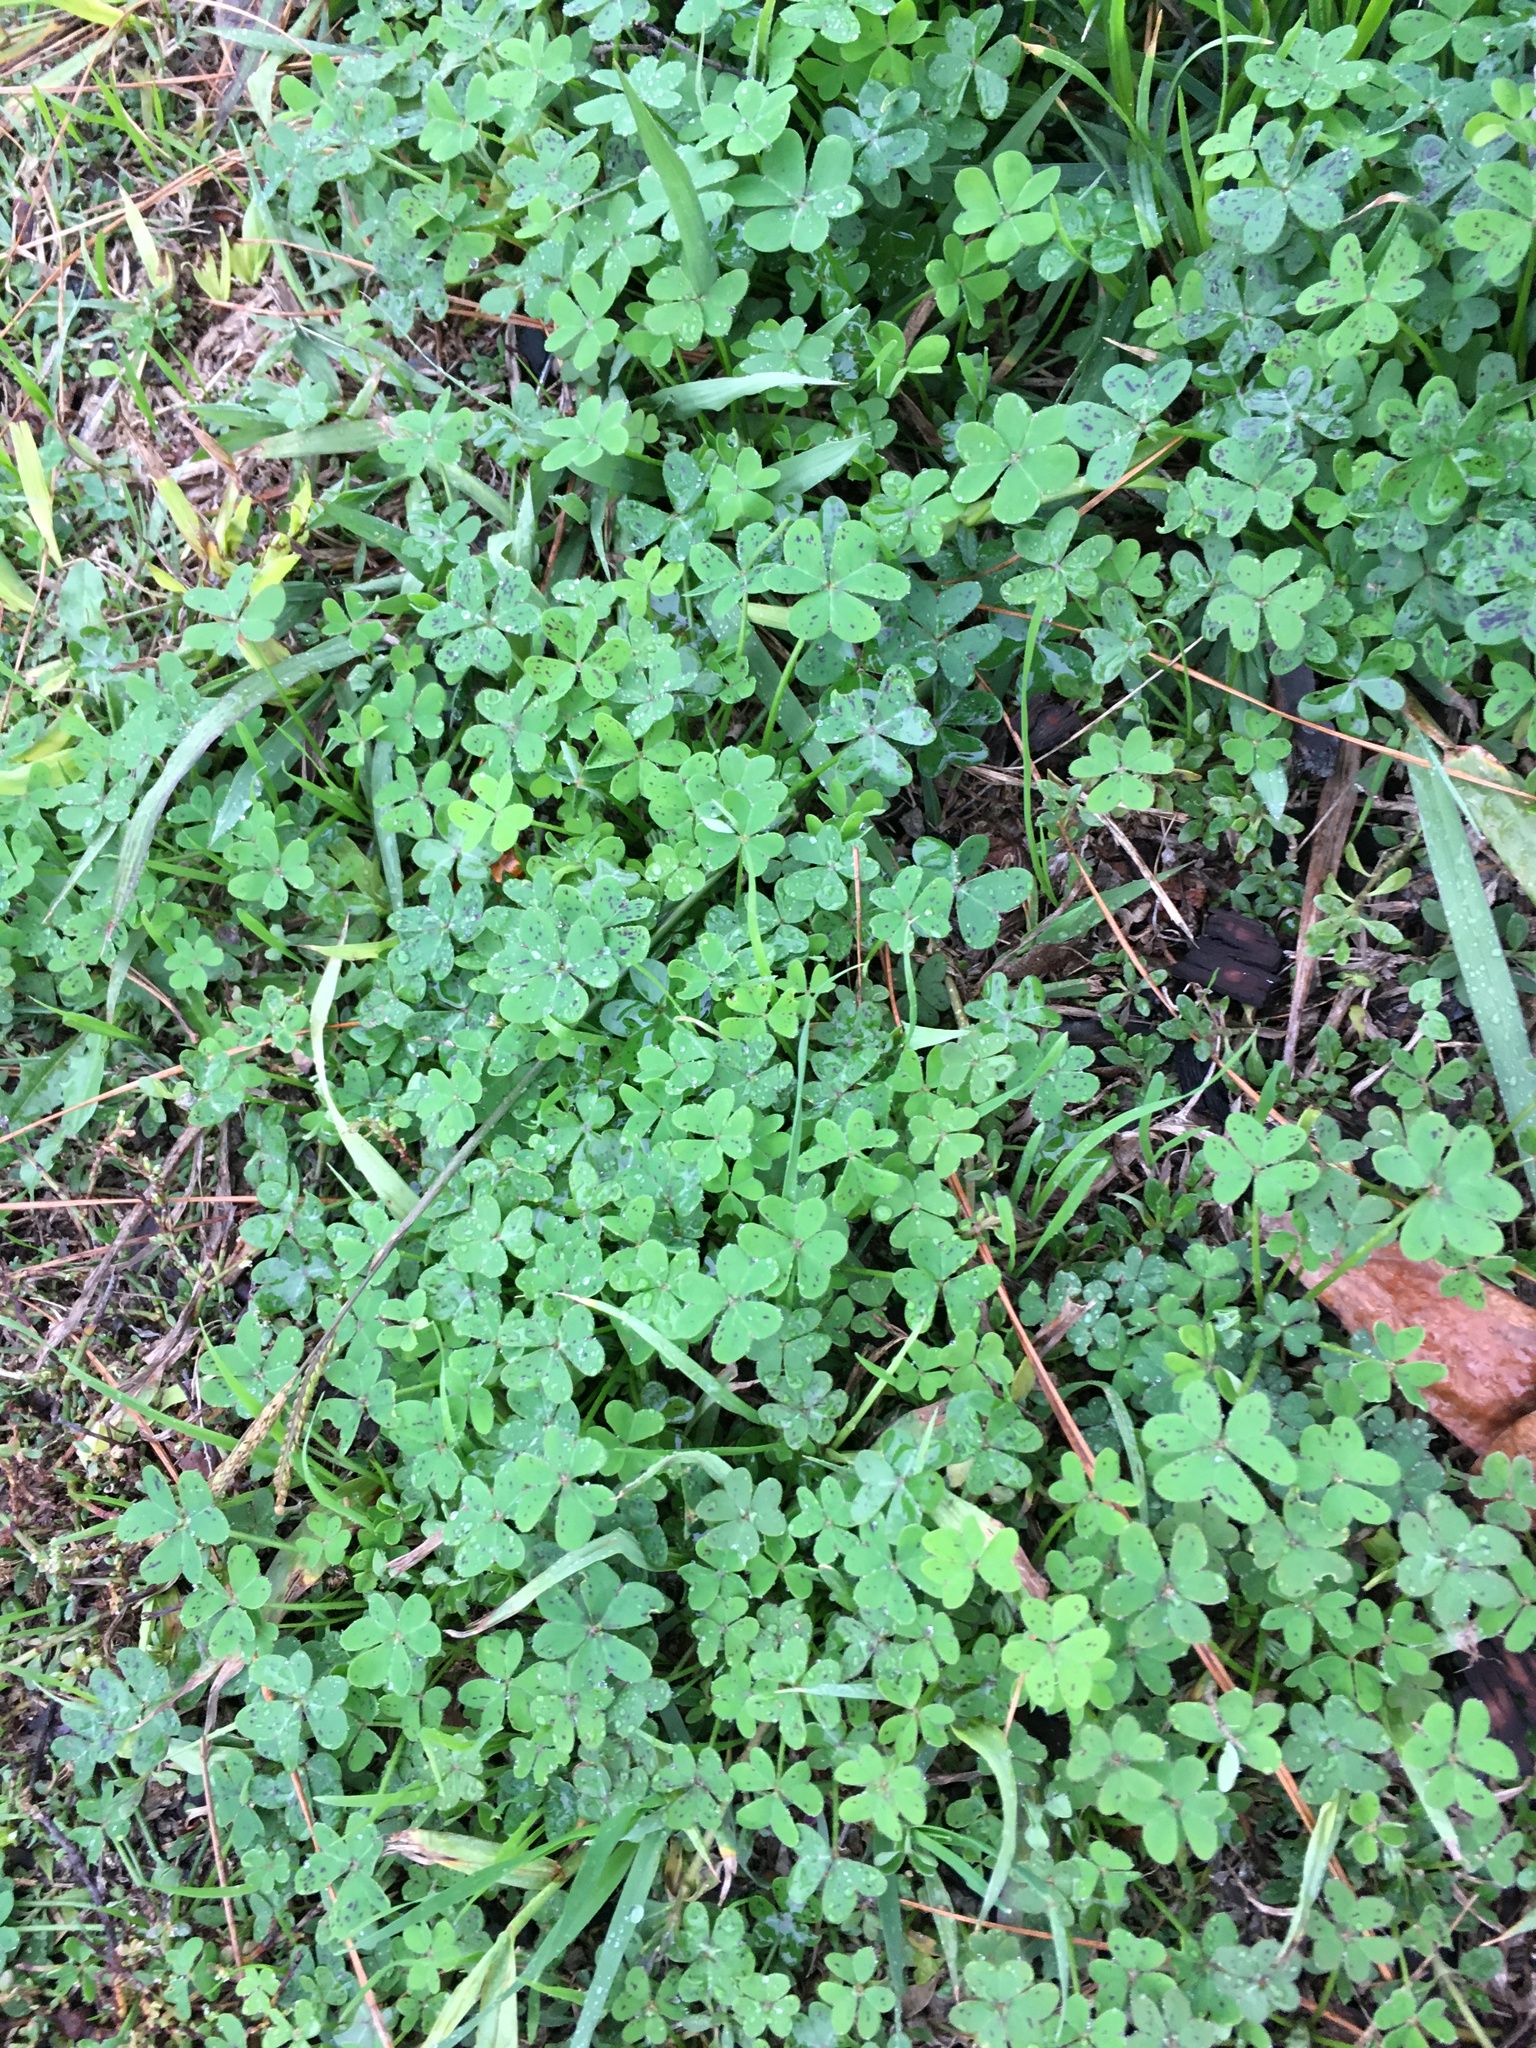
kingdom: Plantae
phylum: Tracheophyta
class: Magnoliopsida
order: Oxalidales
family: Oxalidaceae
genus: Oxalis
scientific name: Oxalis pes-caprae
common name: Bermuda-buttercup
